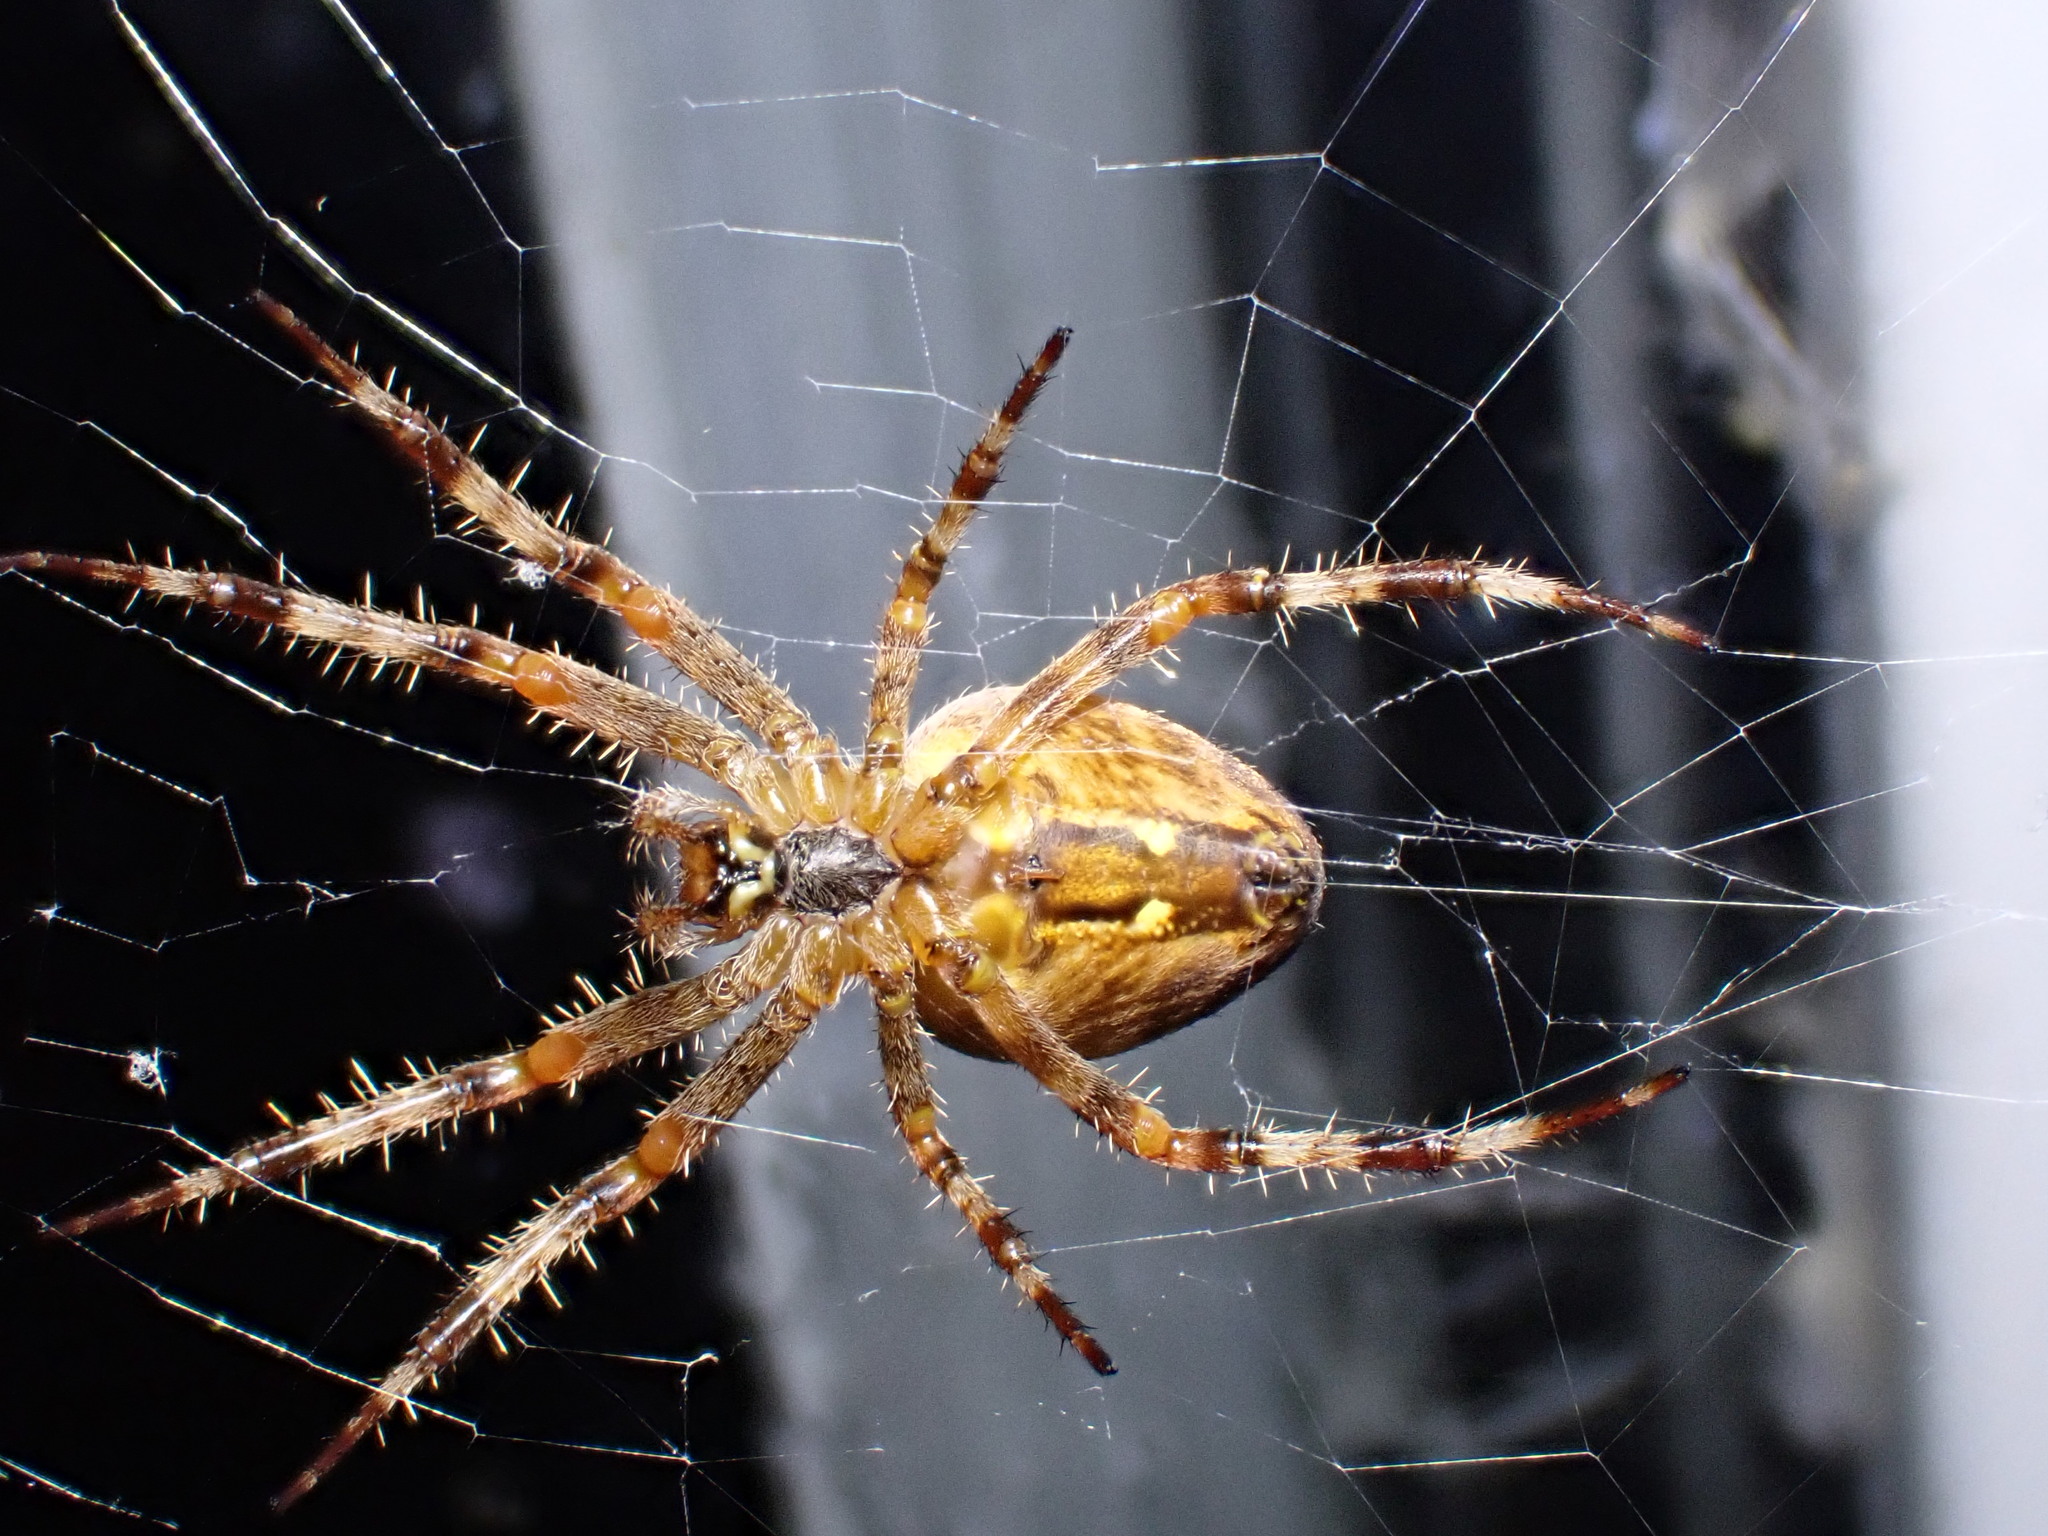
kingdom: Animalia
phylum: Arthropoda
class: Arachnida
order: Araneae
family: Araneidae
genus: Araneus
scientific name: Araneus diadematus
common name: Cross orbweaver
